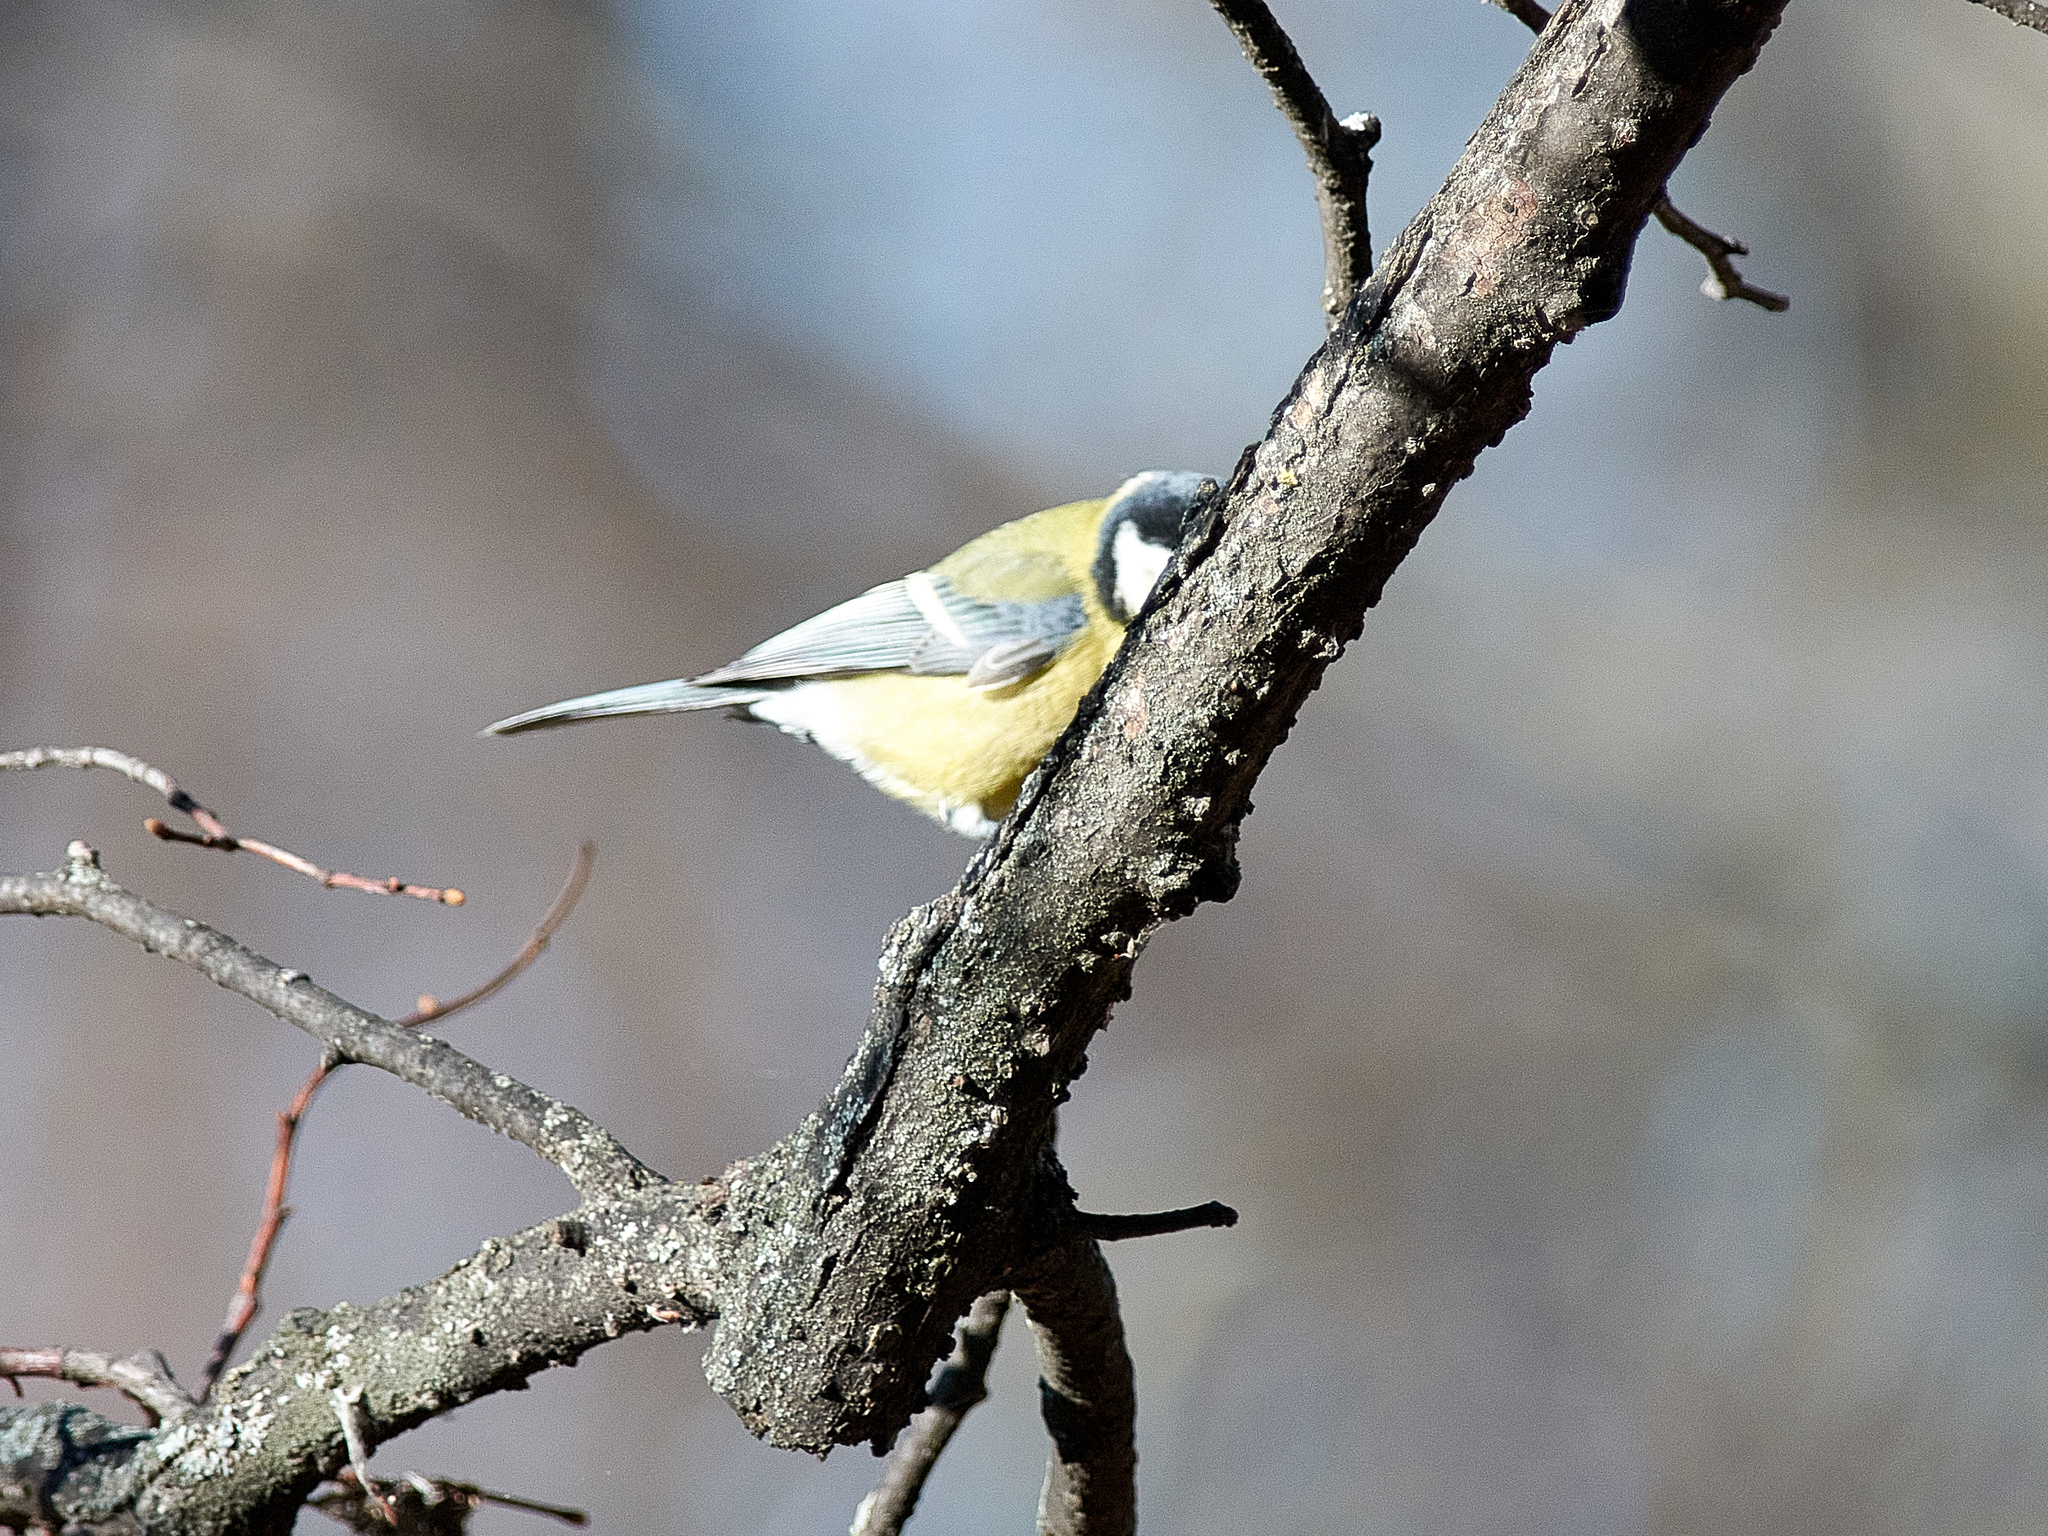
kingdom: Animalia
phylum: Chordata
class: Aves
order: Passeriformes
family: Paridae
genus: Parus
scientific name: Parus major
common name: Great tit
